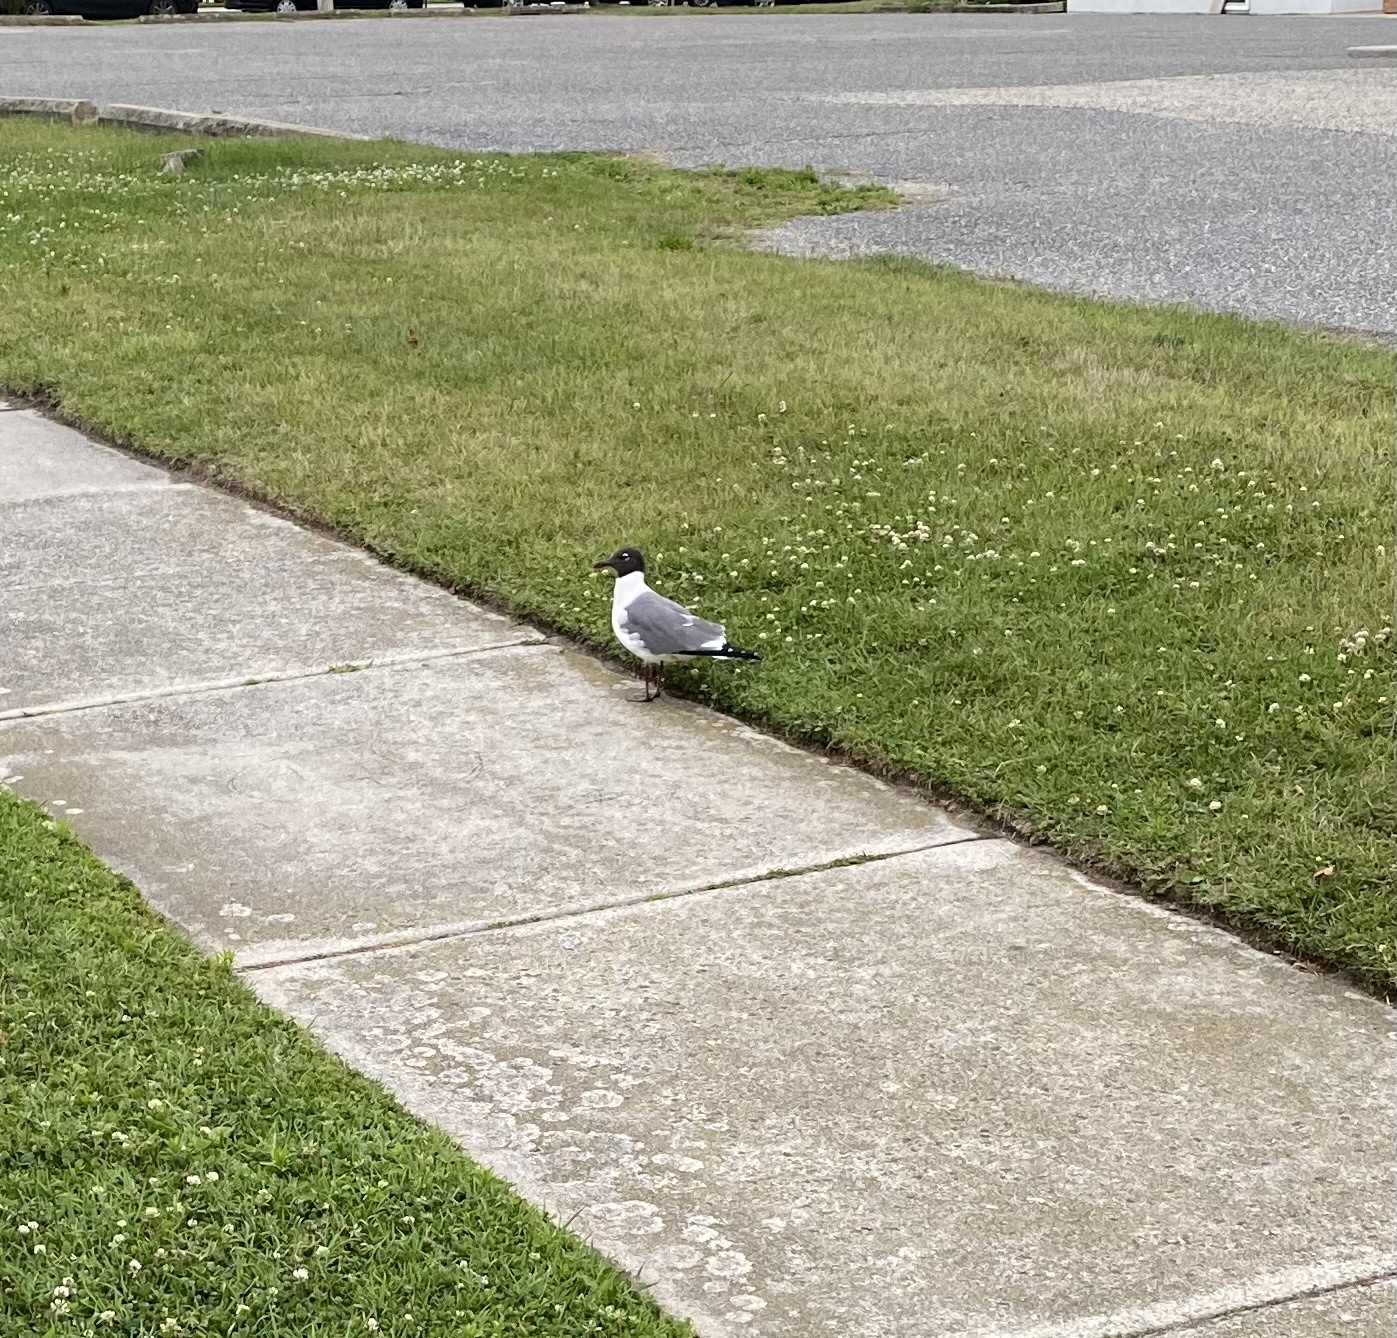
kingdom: Animalia
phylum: Chordata
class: Aves
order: Charadriiformes
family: Laridae
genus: Leucophaeus
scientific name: Leucophaeus atricilla
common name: Laughing gull
